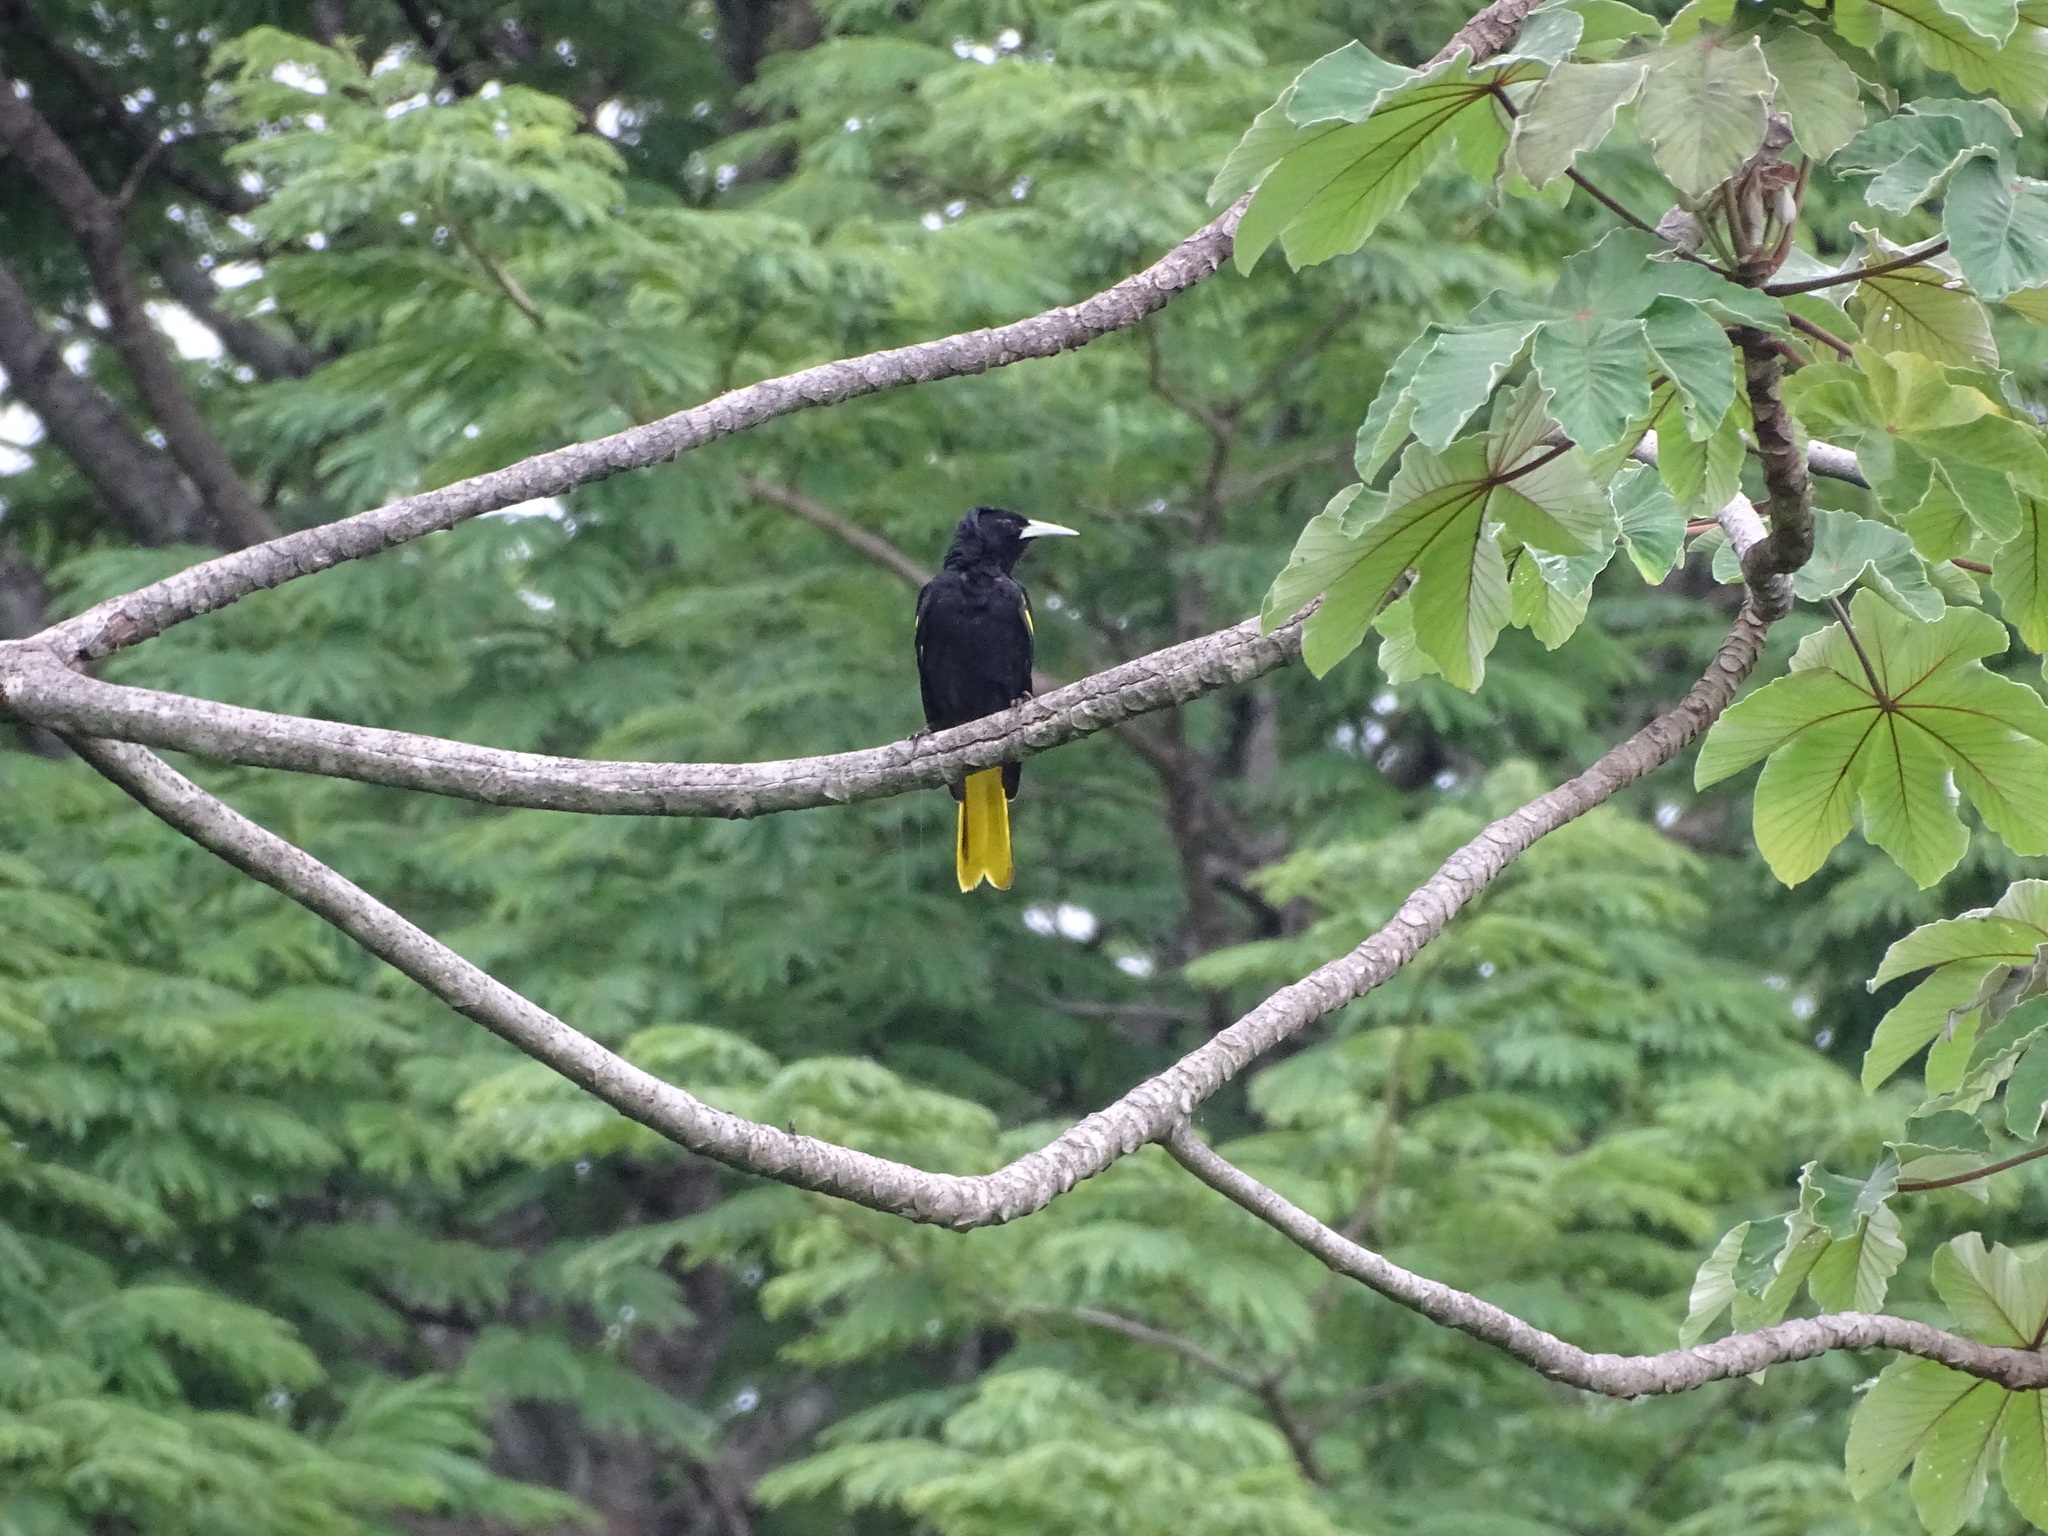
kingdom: Animalia
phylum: Chordata
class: Aves
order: Passeriformes
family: Icteridae
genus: Cacicus
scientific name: Cacicus melanicterus
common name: Yellow-winged cacique
